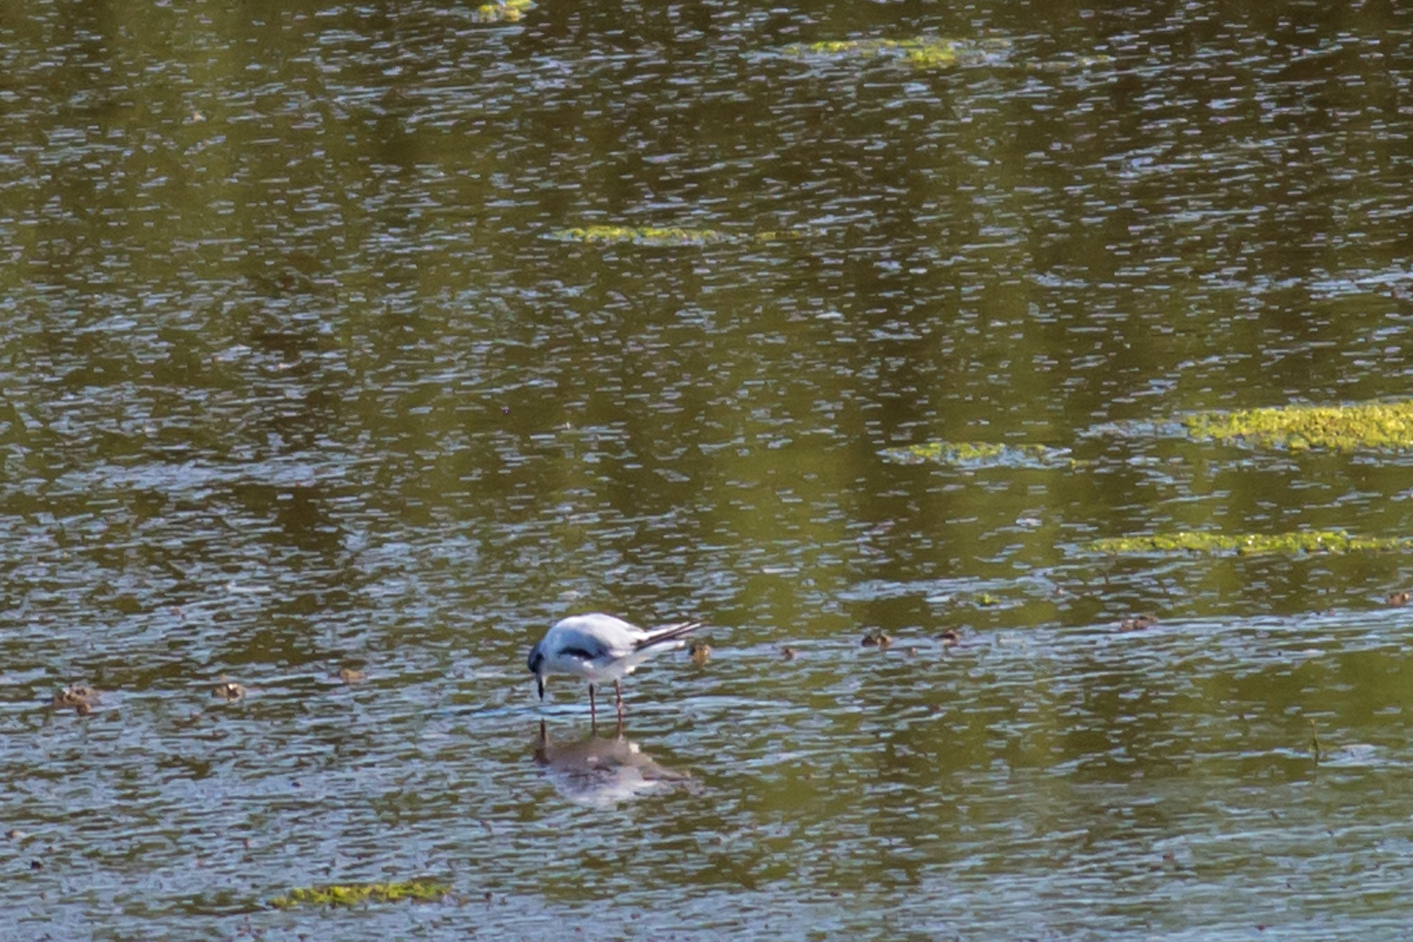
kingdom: Animalia
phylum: Chordata
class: Aves
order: Charadriiformes
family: Laridae
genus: Hydrocoloeus
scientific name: Hydrocoloeus minutus
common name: Little gull
